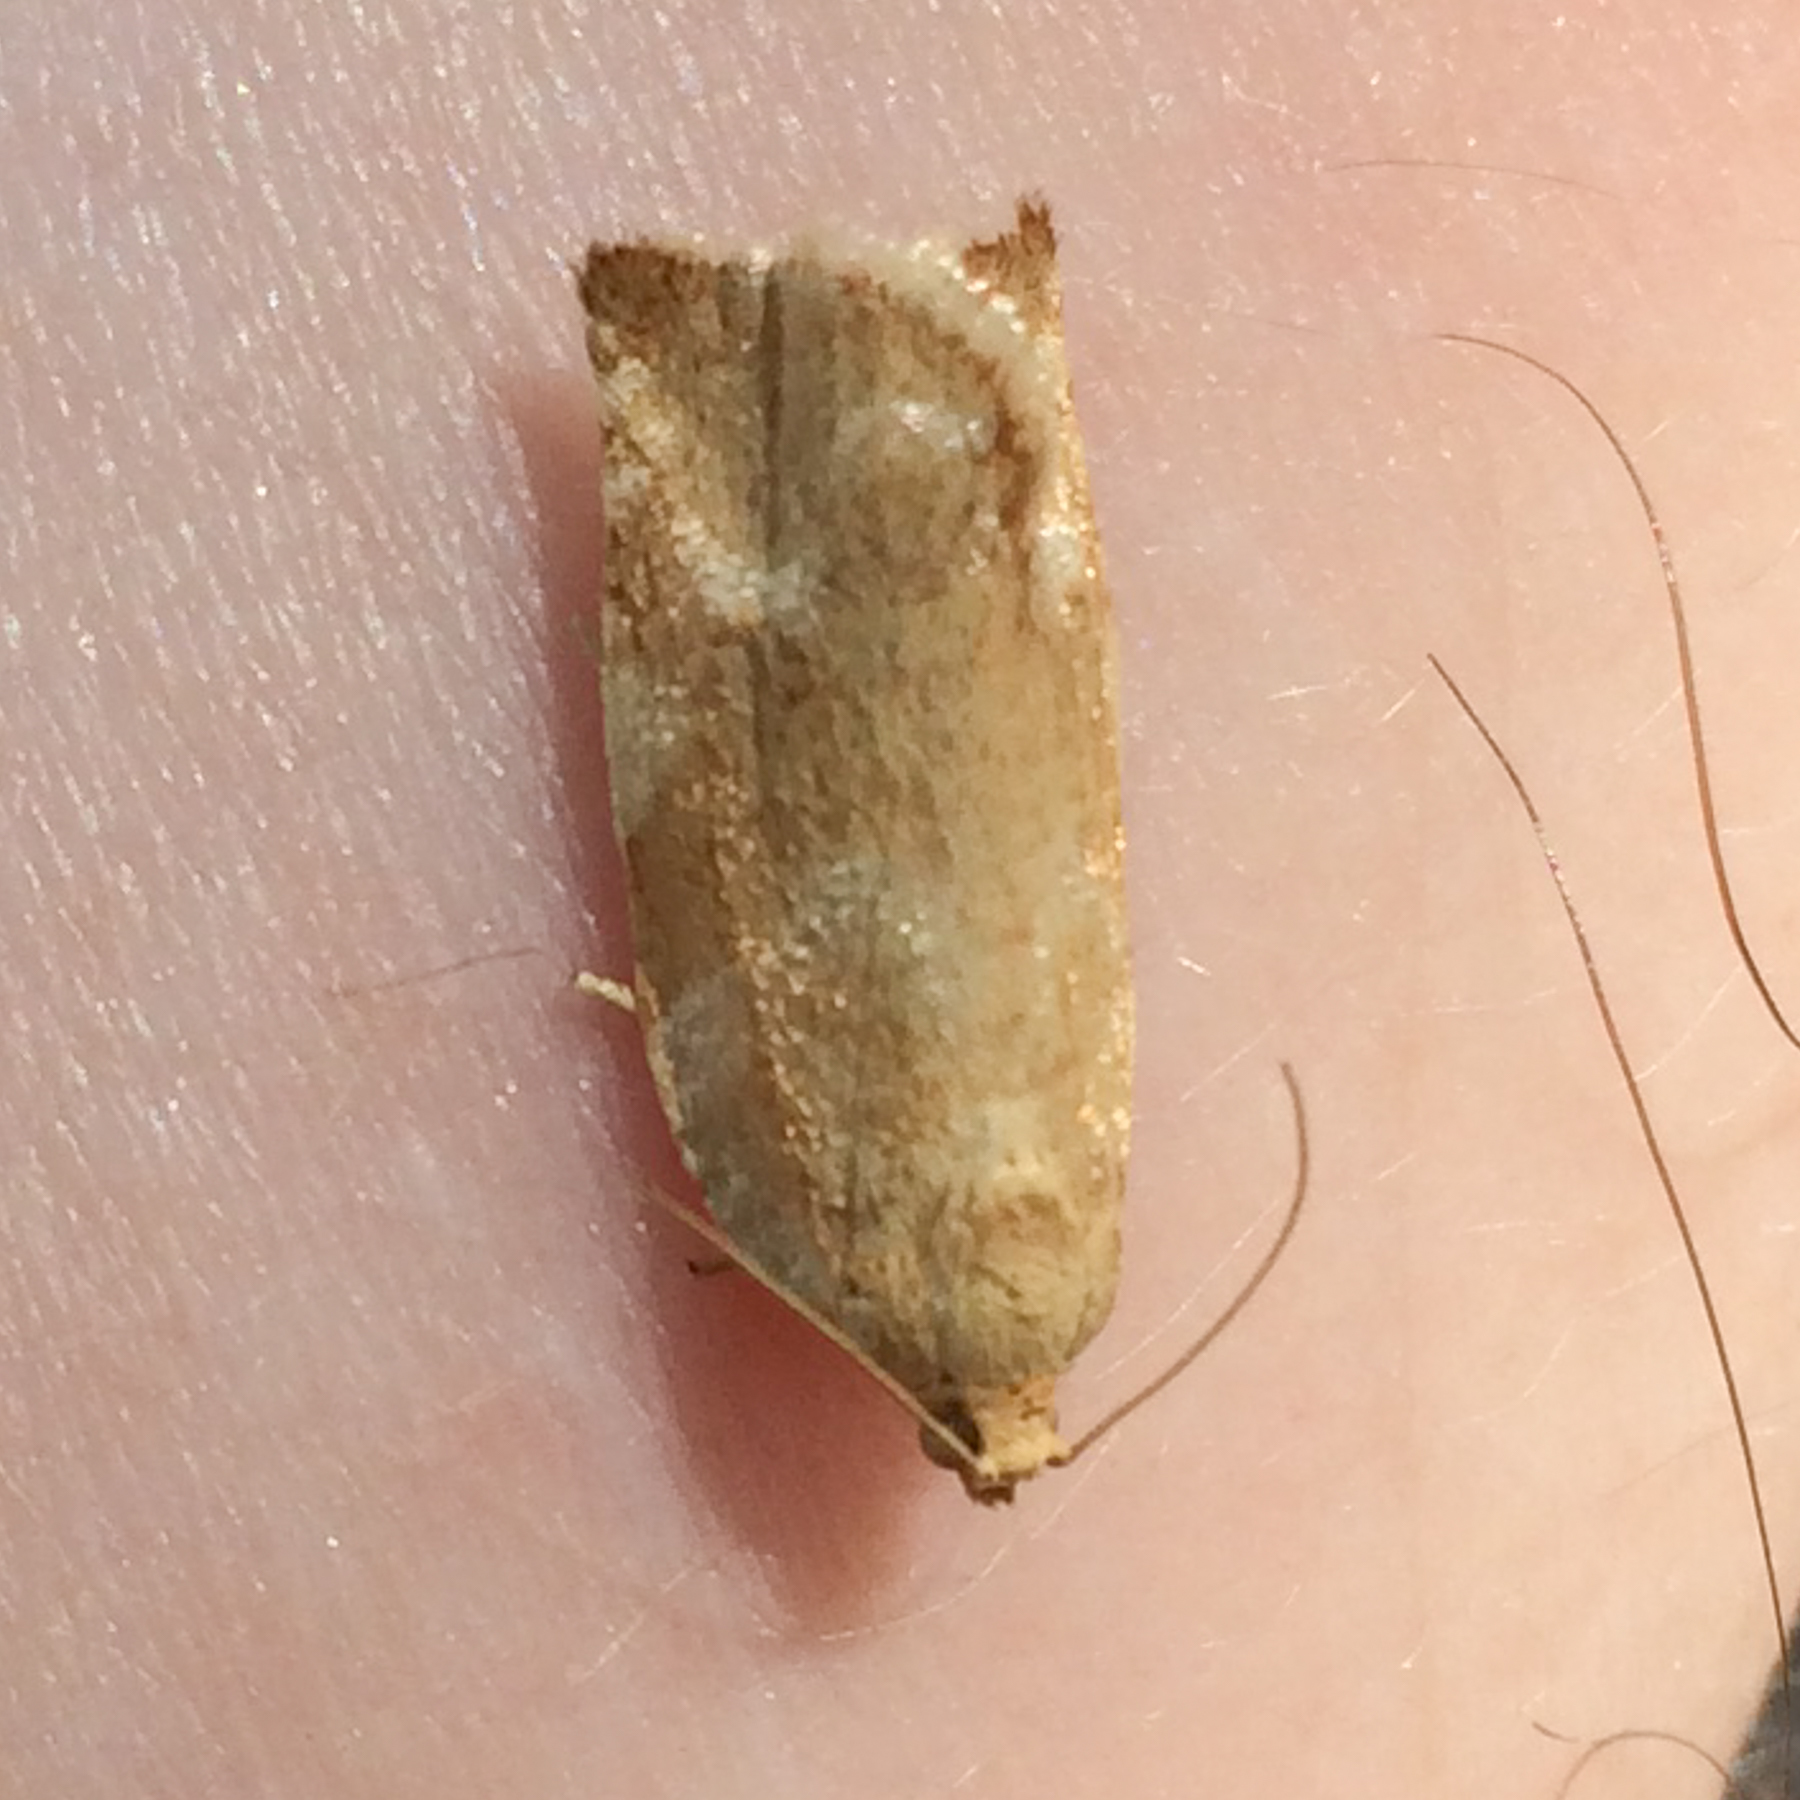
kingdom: Animalia
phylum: Arthropoda
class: Insecta
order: Lepidoptera
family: Tortricidae
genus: Archips
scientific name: Archips semiferanus
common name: Oak leafroller
